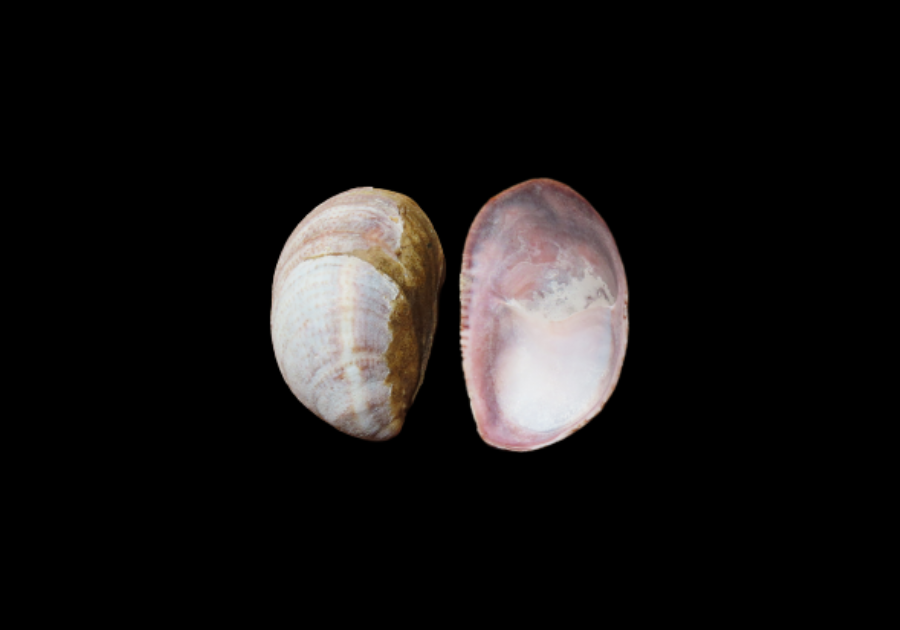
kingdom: Animalia
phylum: Mollusca
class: Gastropoda
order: Littorinimorpha
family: Calyptraeidae
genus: Crepidula
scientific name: Crepidula fornicata
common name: Slipper limpet
